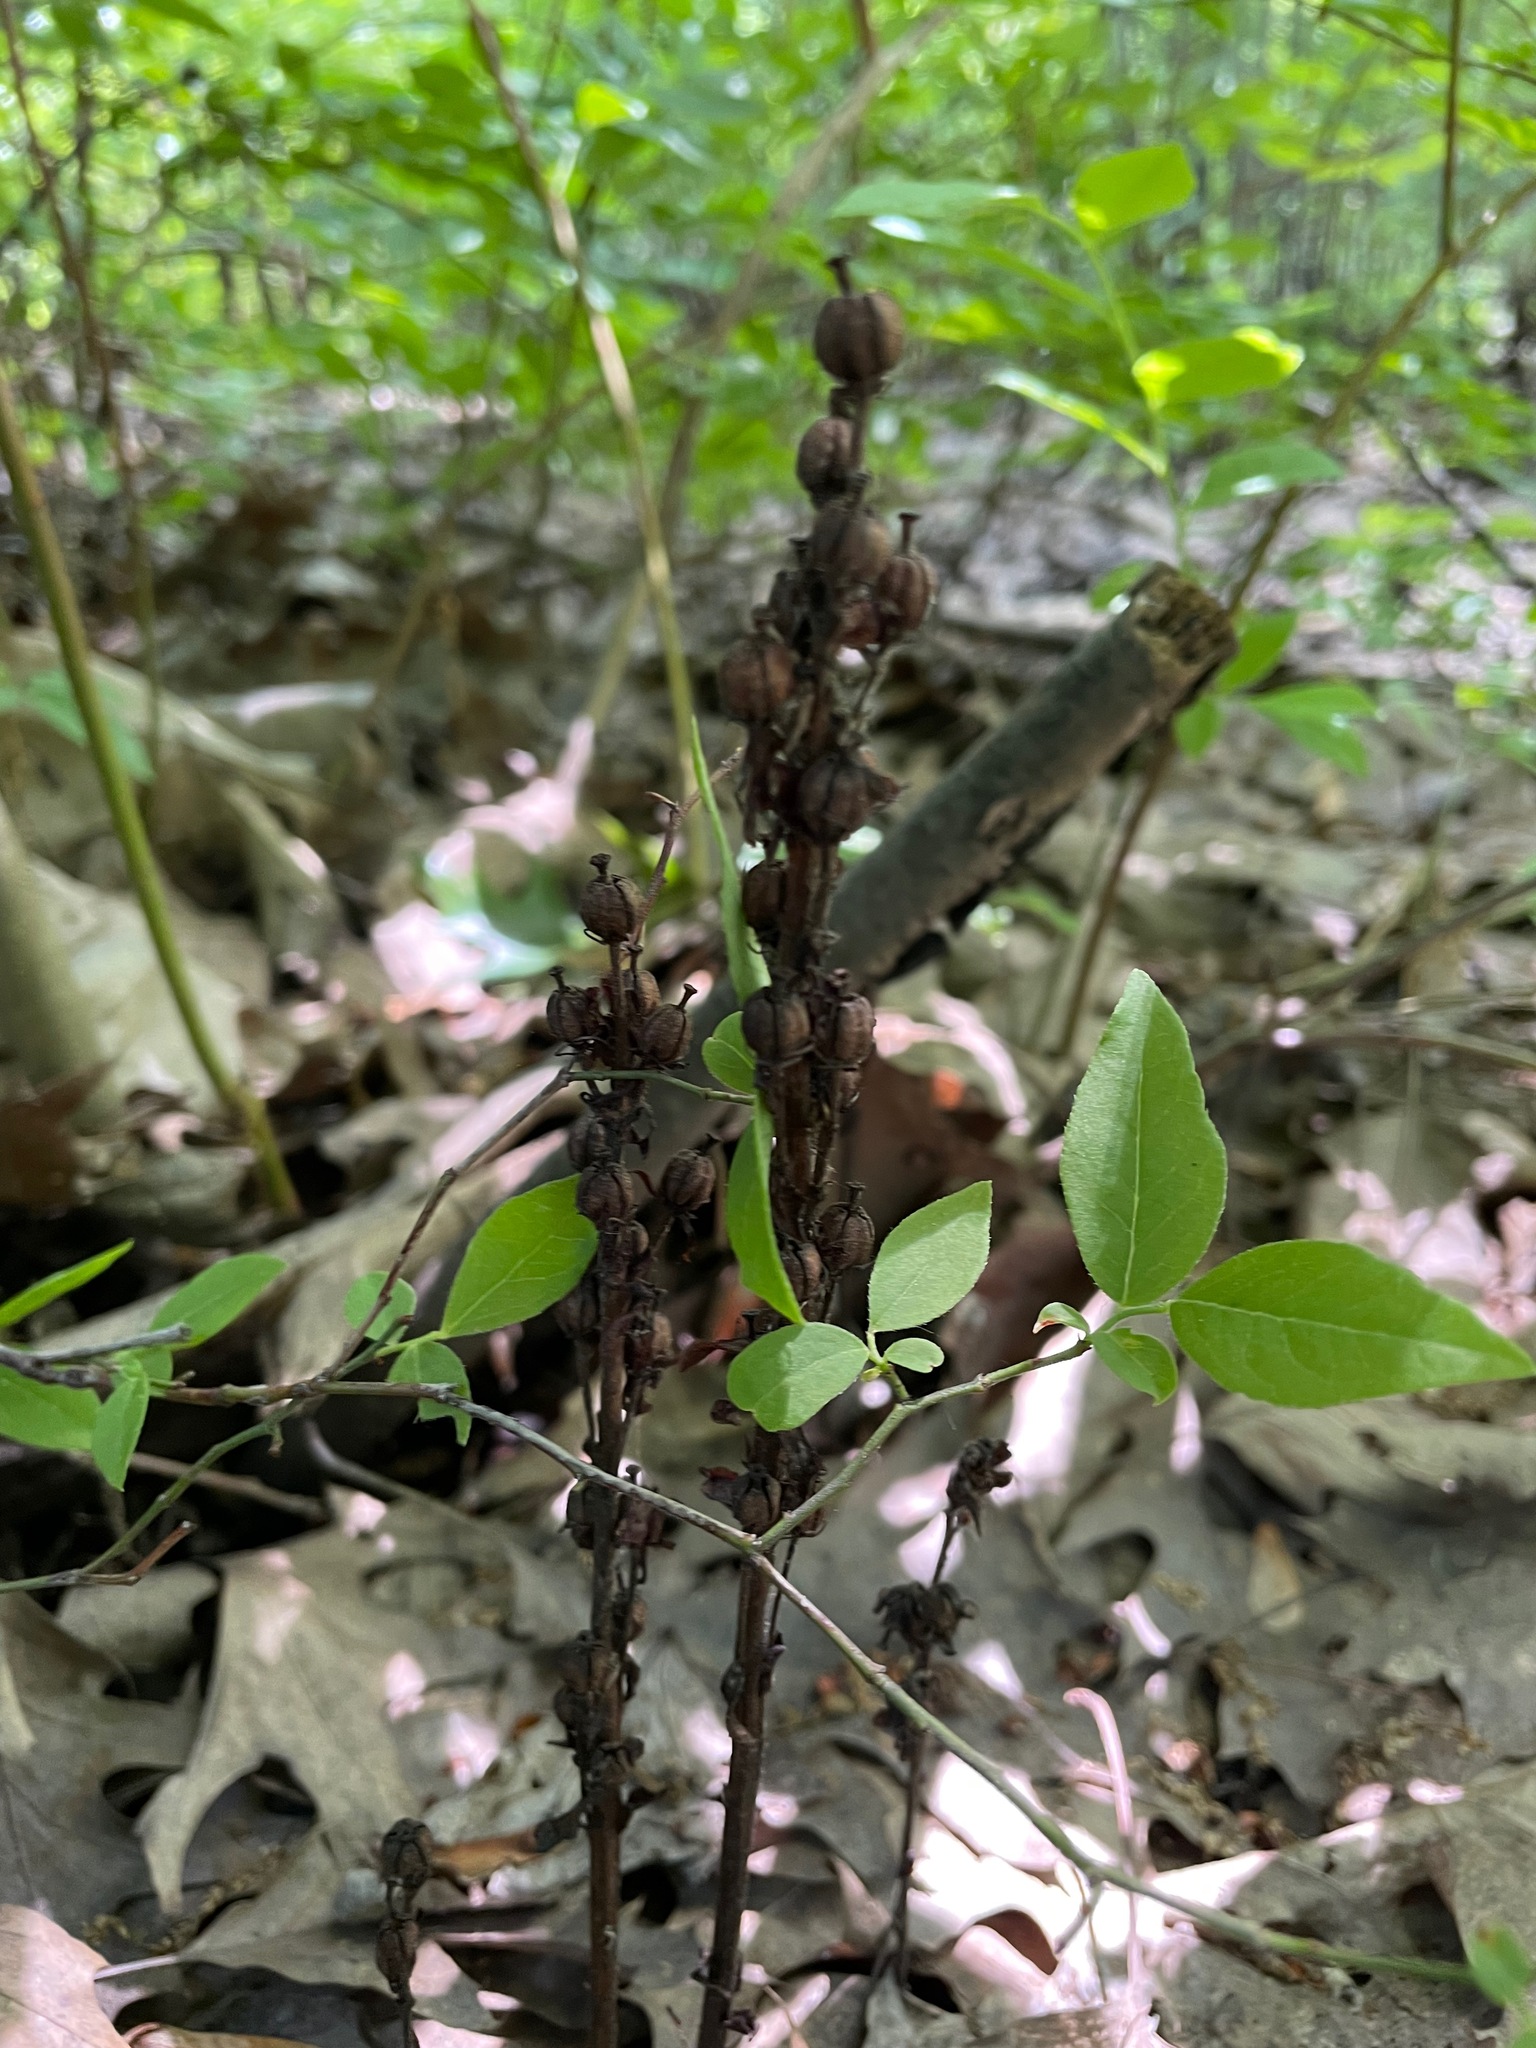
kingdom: Plantae
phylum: Tracheophyta
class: Magnoliopsida
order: Ericales
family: Ericaceae
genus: Hypopitys
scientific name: Hypopitys monotropa
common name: Yellow bird's-nest
